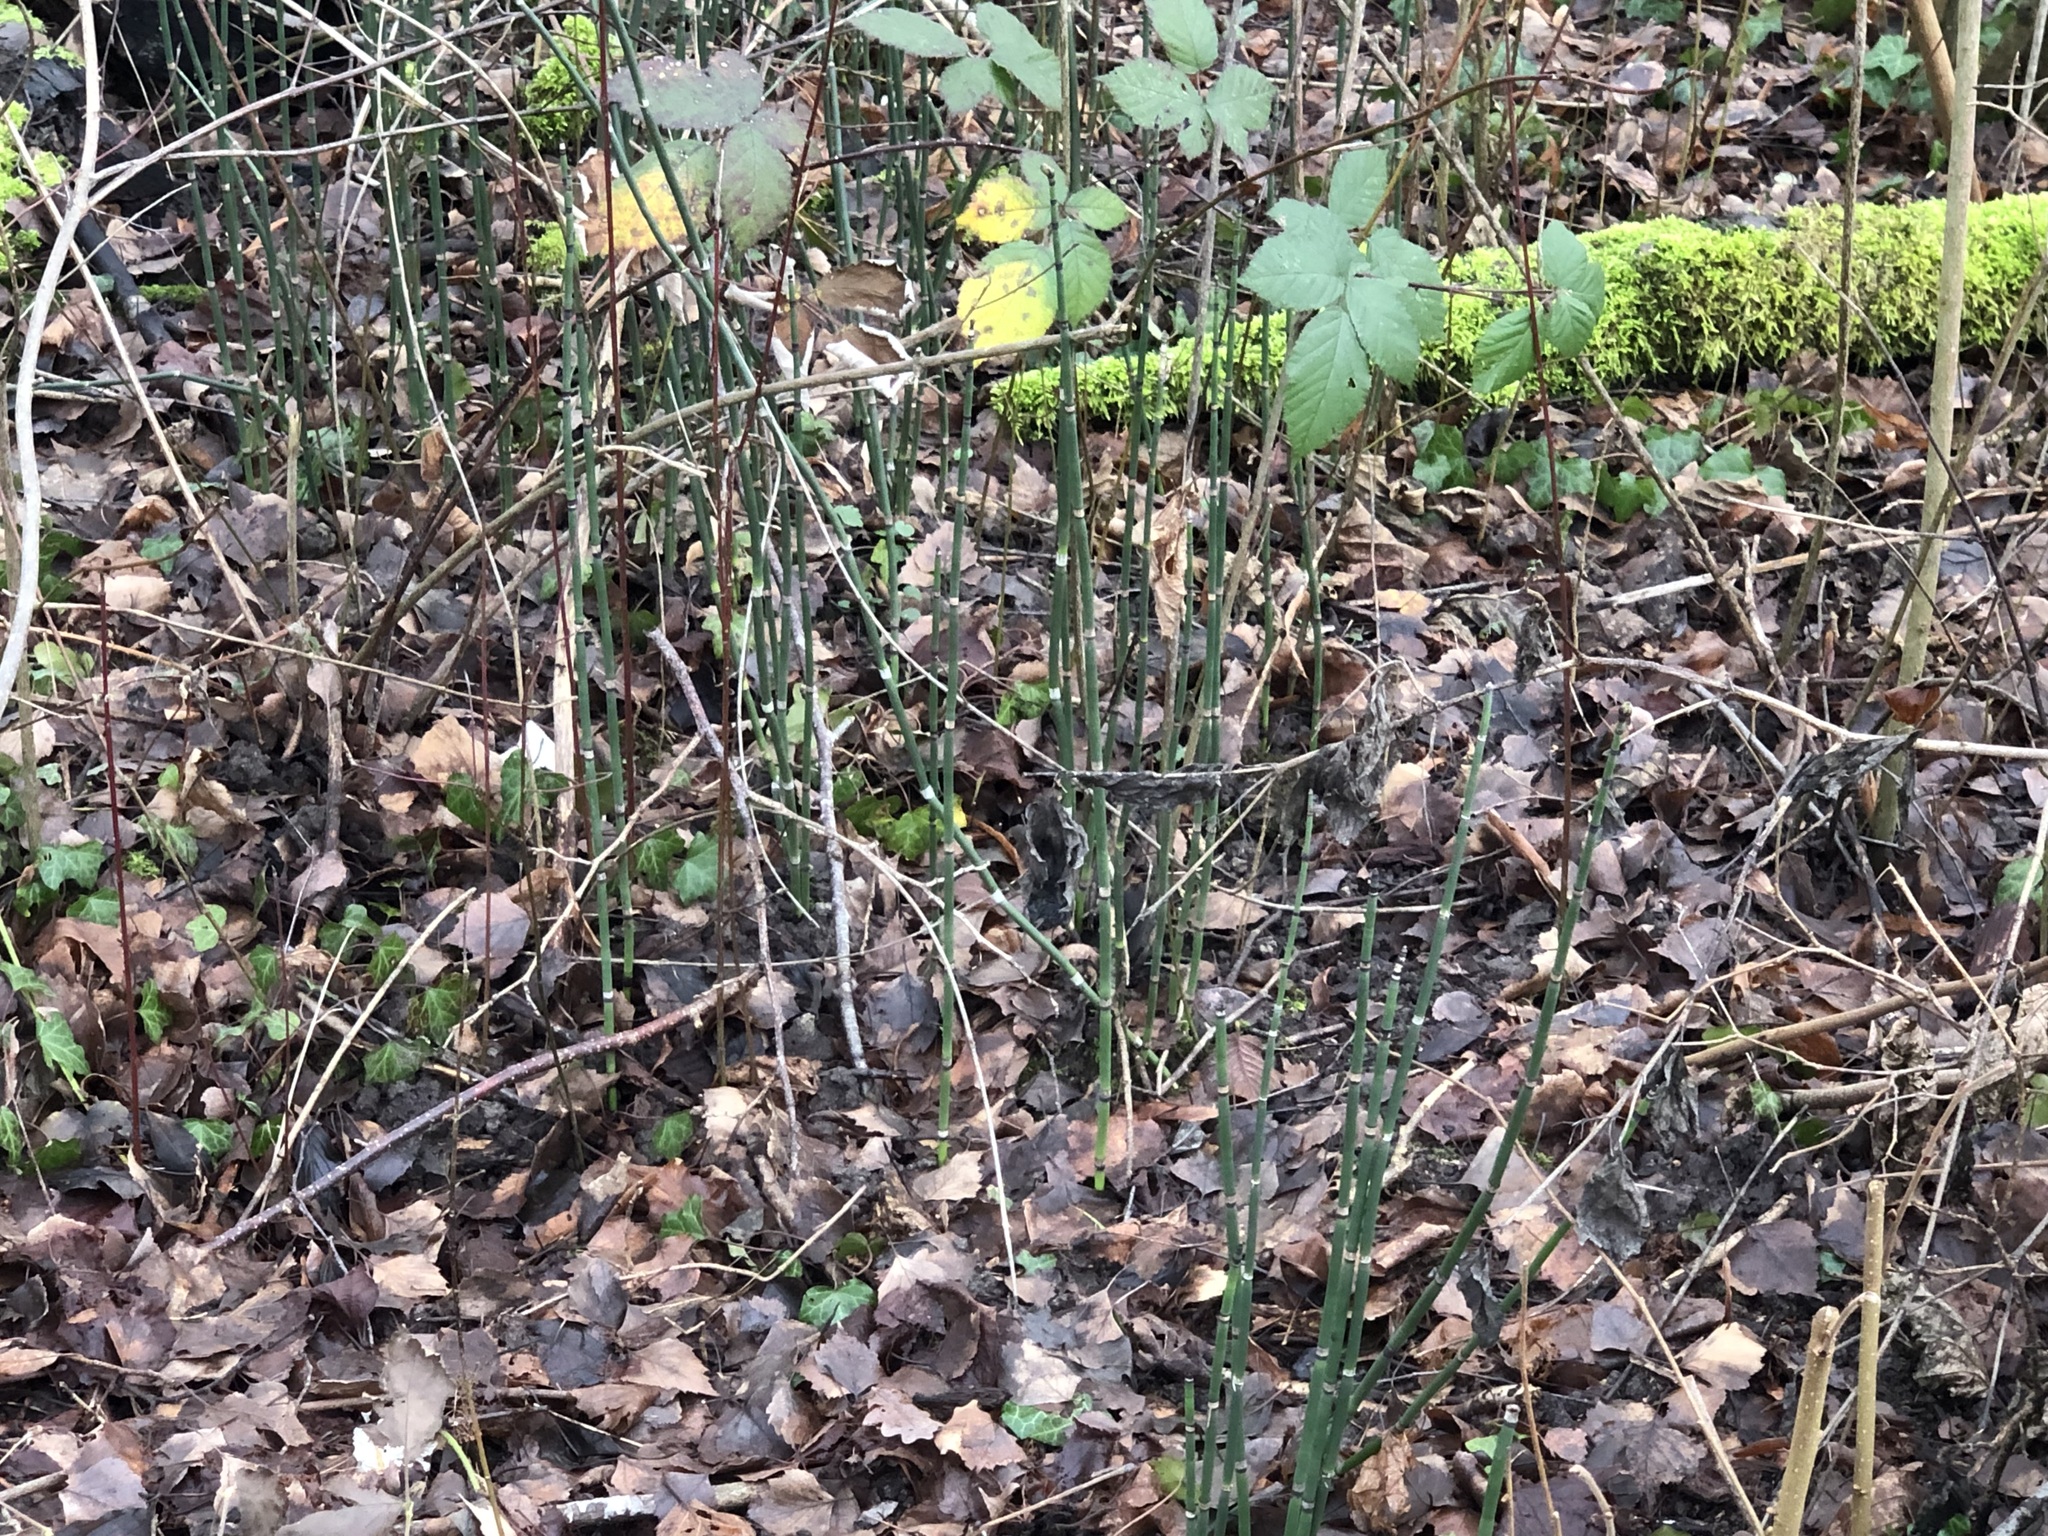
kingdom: Plantae
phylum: Tracheophyta
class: Polypodiopsida
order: Equisetales
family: Equisetaceae
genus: Equisetum
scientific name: Equisetum hyemale
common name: Rough horsetail
